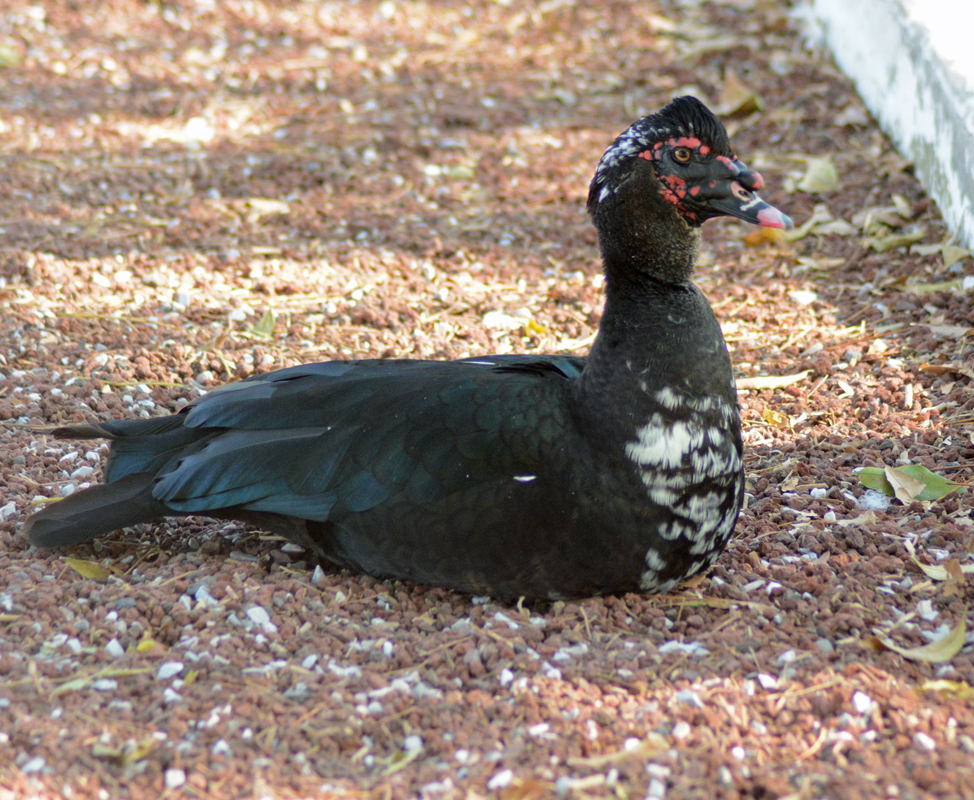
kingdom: Animalia
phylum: Chordata
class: Aves
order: Anseriformes
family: Anatidae
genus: Cairina
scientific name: Cairina moschata
